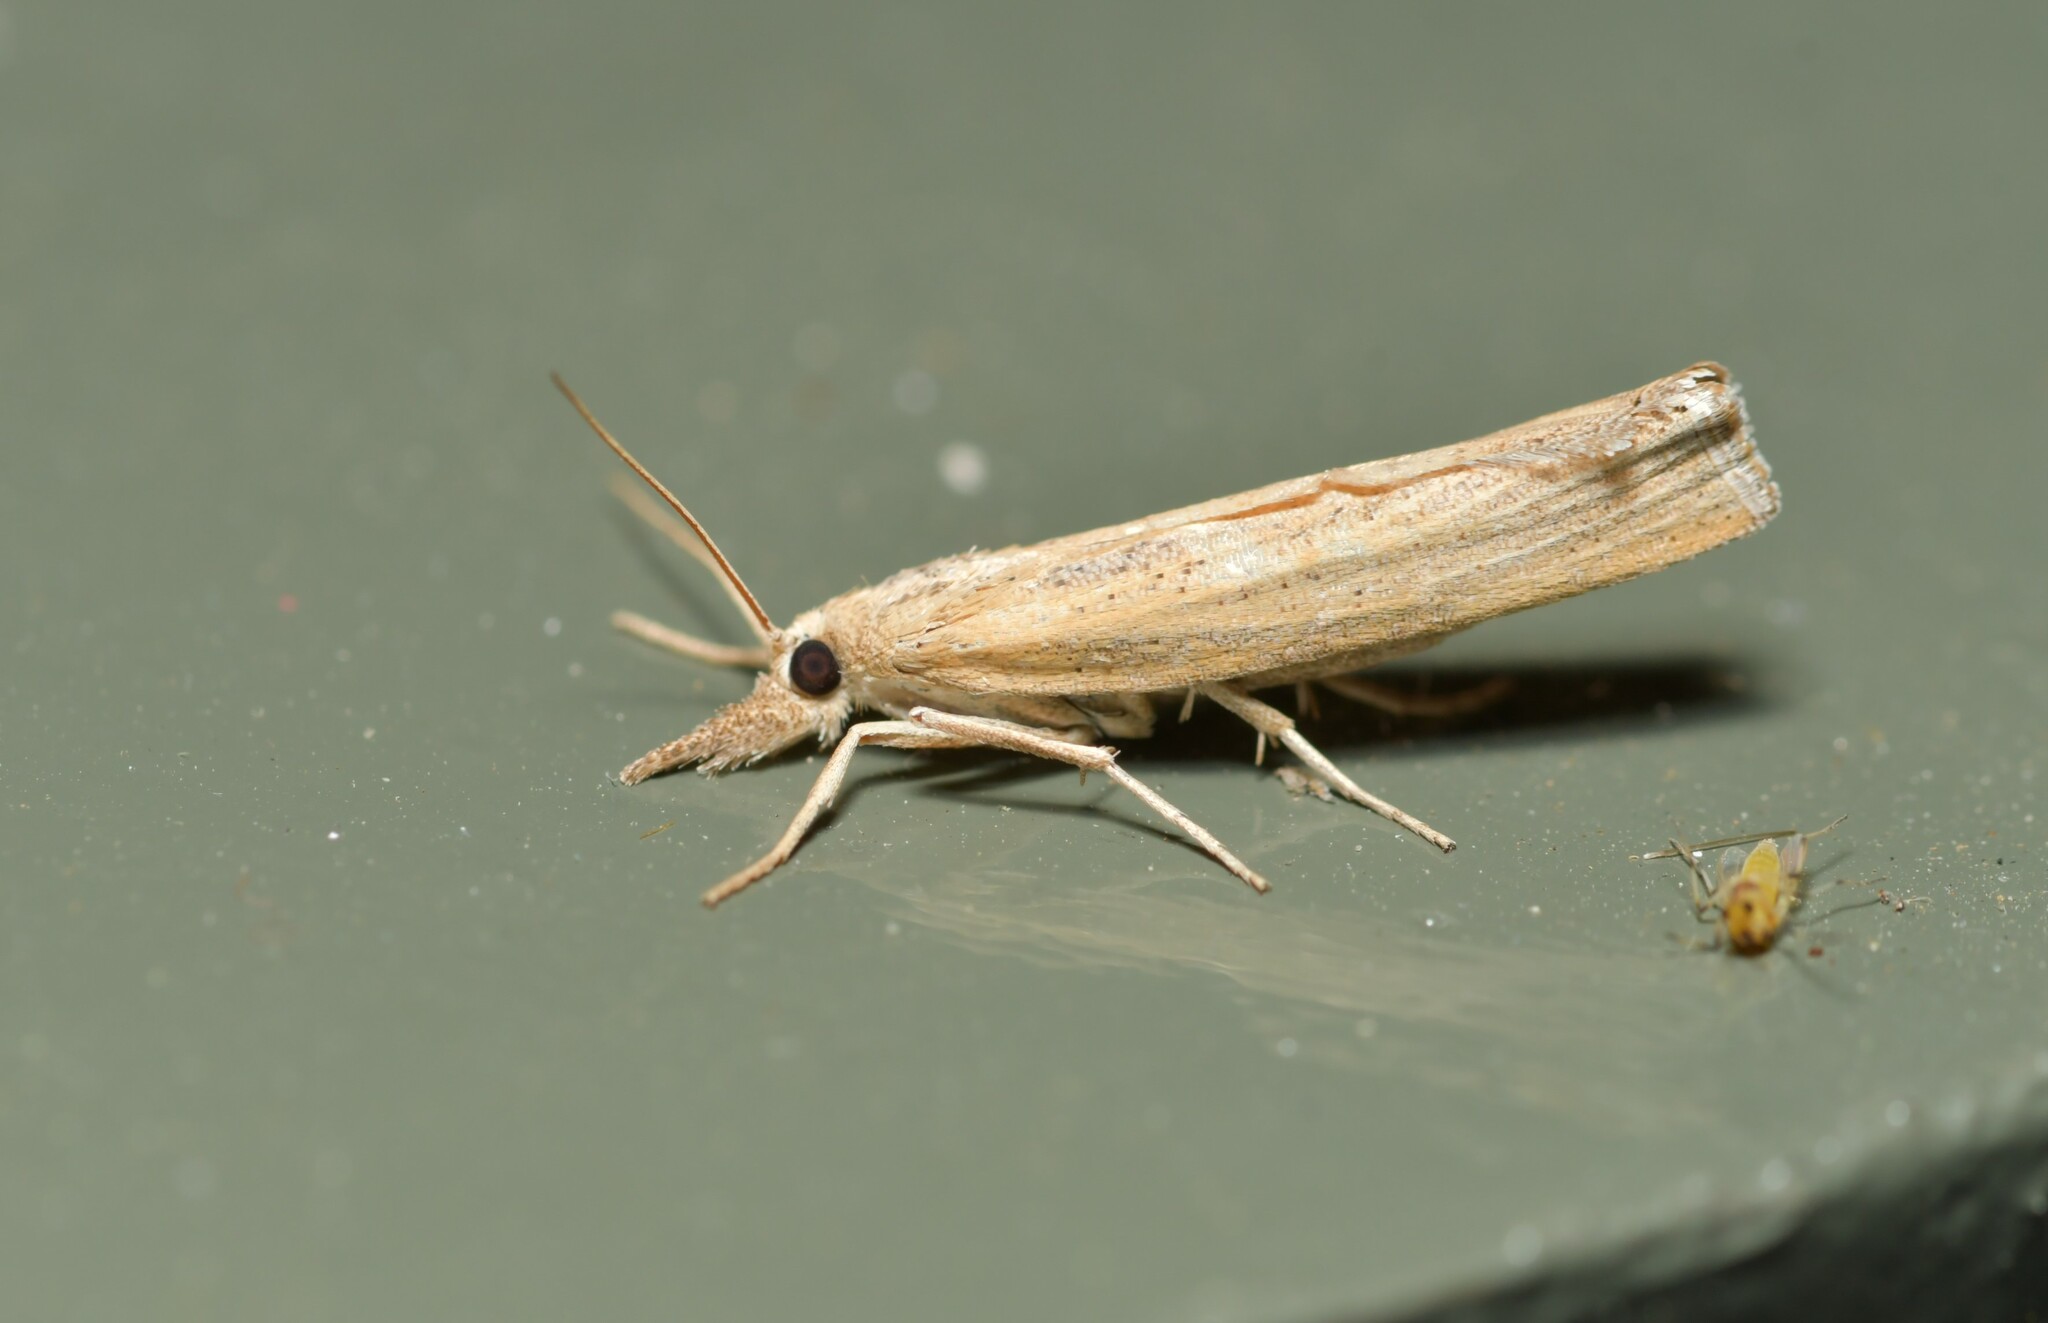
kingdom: Animalia
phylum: Arthropoda
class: Insecta
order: Lepidoptera
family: Crambidae
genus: Pediasia
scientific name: Pediasia ribbeellus
